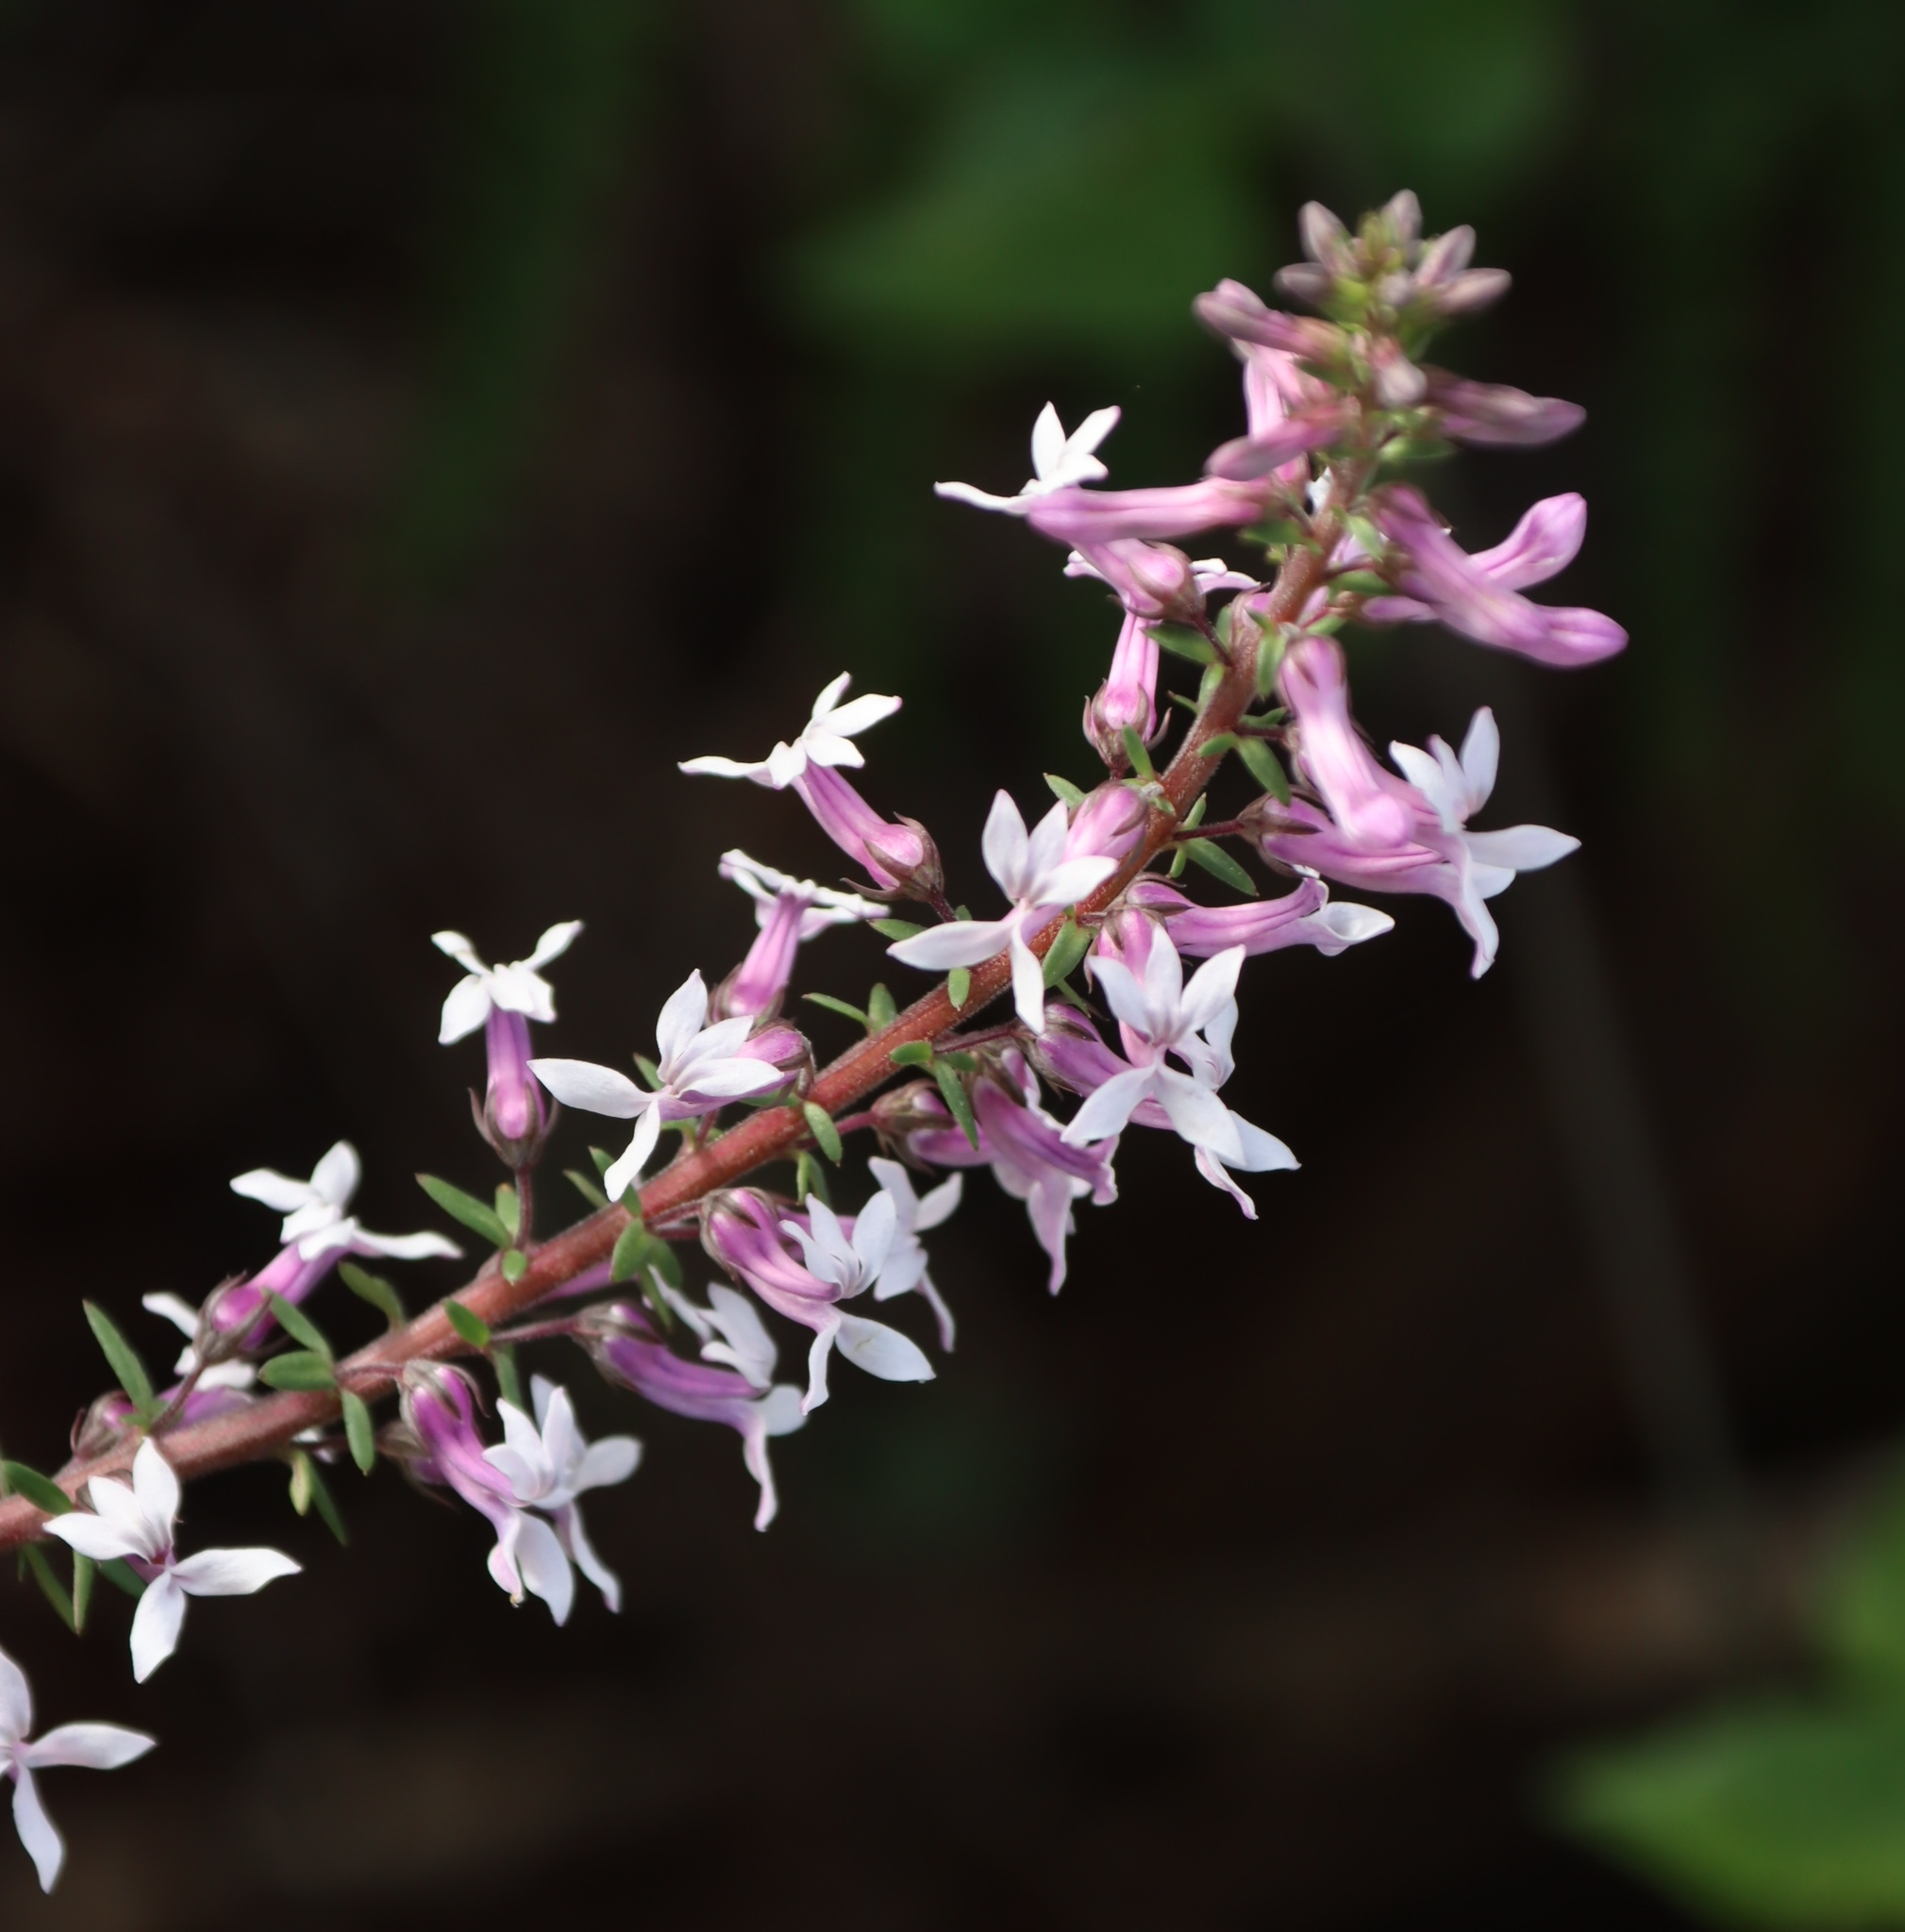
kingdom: Plantae
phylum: Tracheophyta
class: Magnoliopsida
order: Asterales
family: Campanulaceae
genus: Cyphia
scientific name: Cyphia bulbosa
